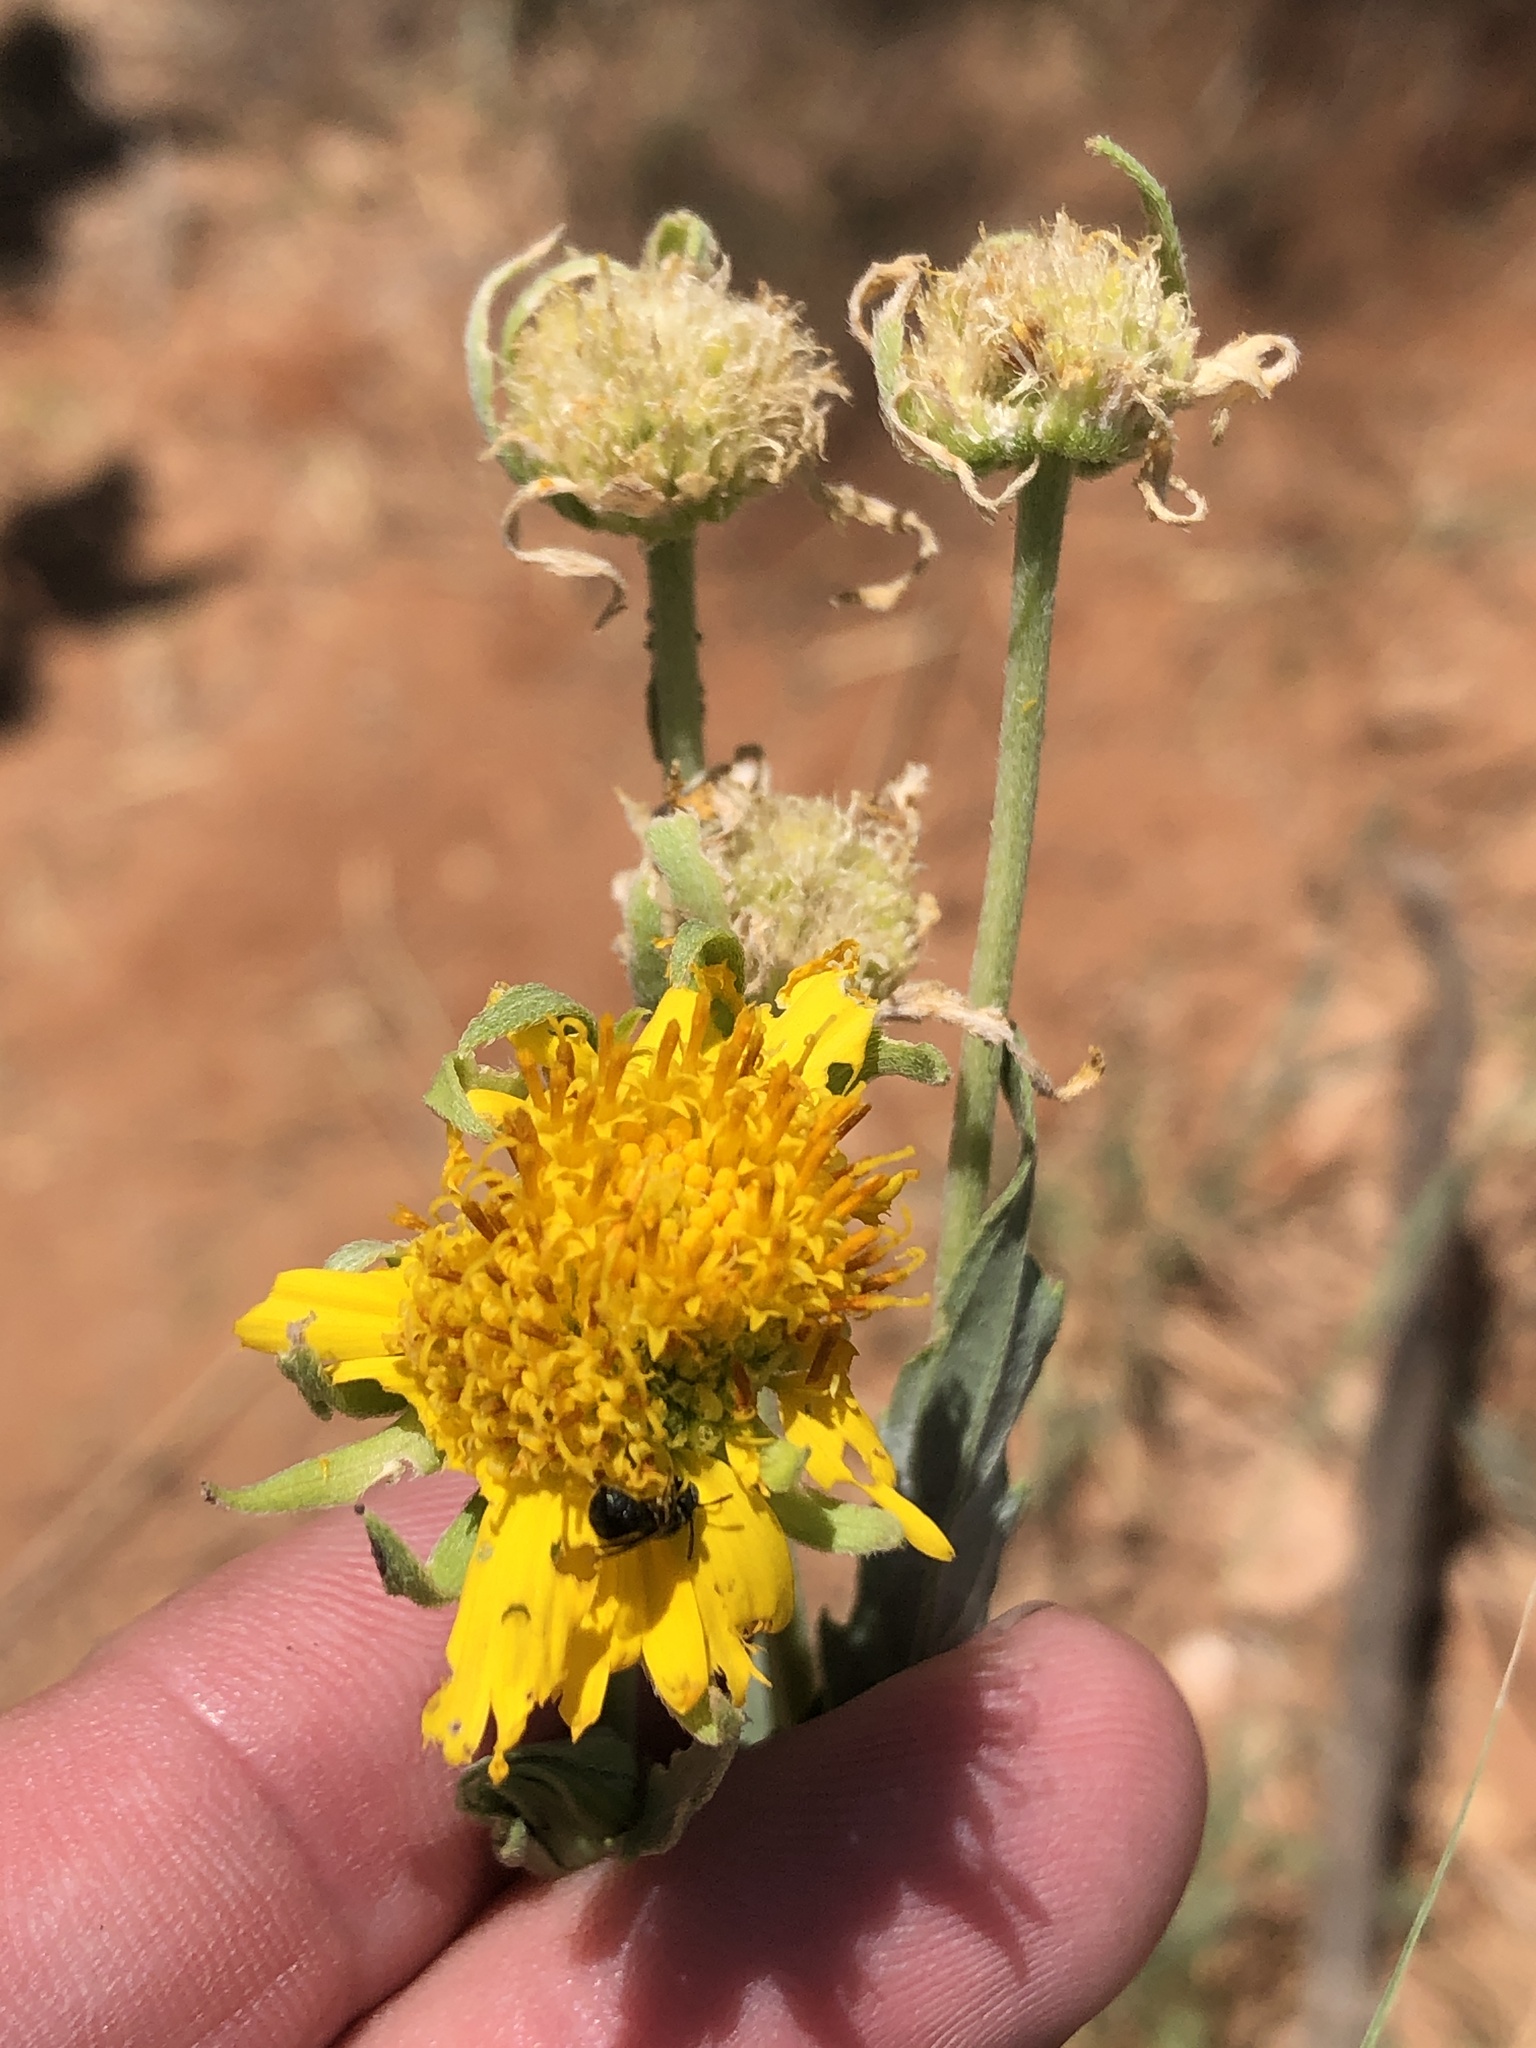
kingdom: Plantae
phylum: Tracheophyta
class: Magnoliopsida
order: Asterales
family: Asteraceae
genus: Verbesina
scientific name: Verbesina encelioides
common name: Golden crownbeard
